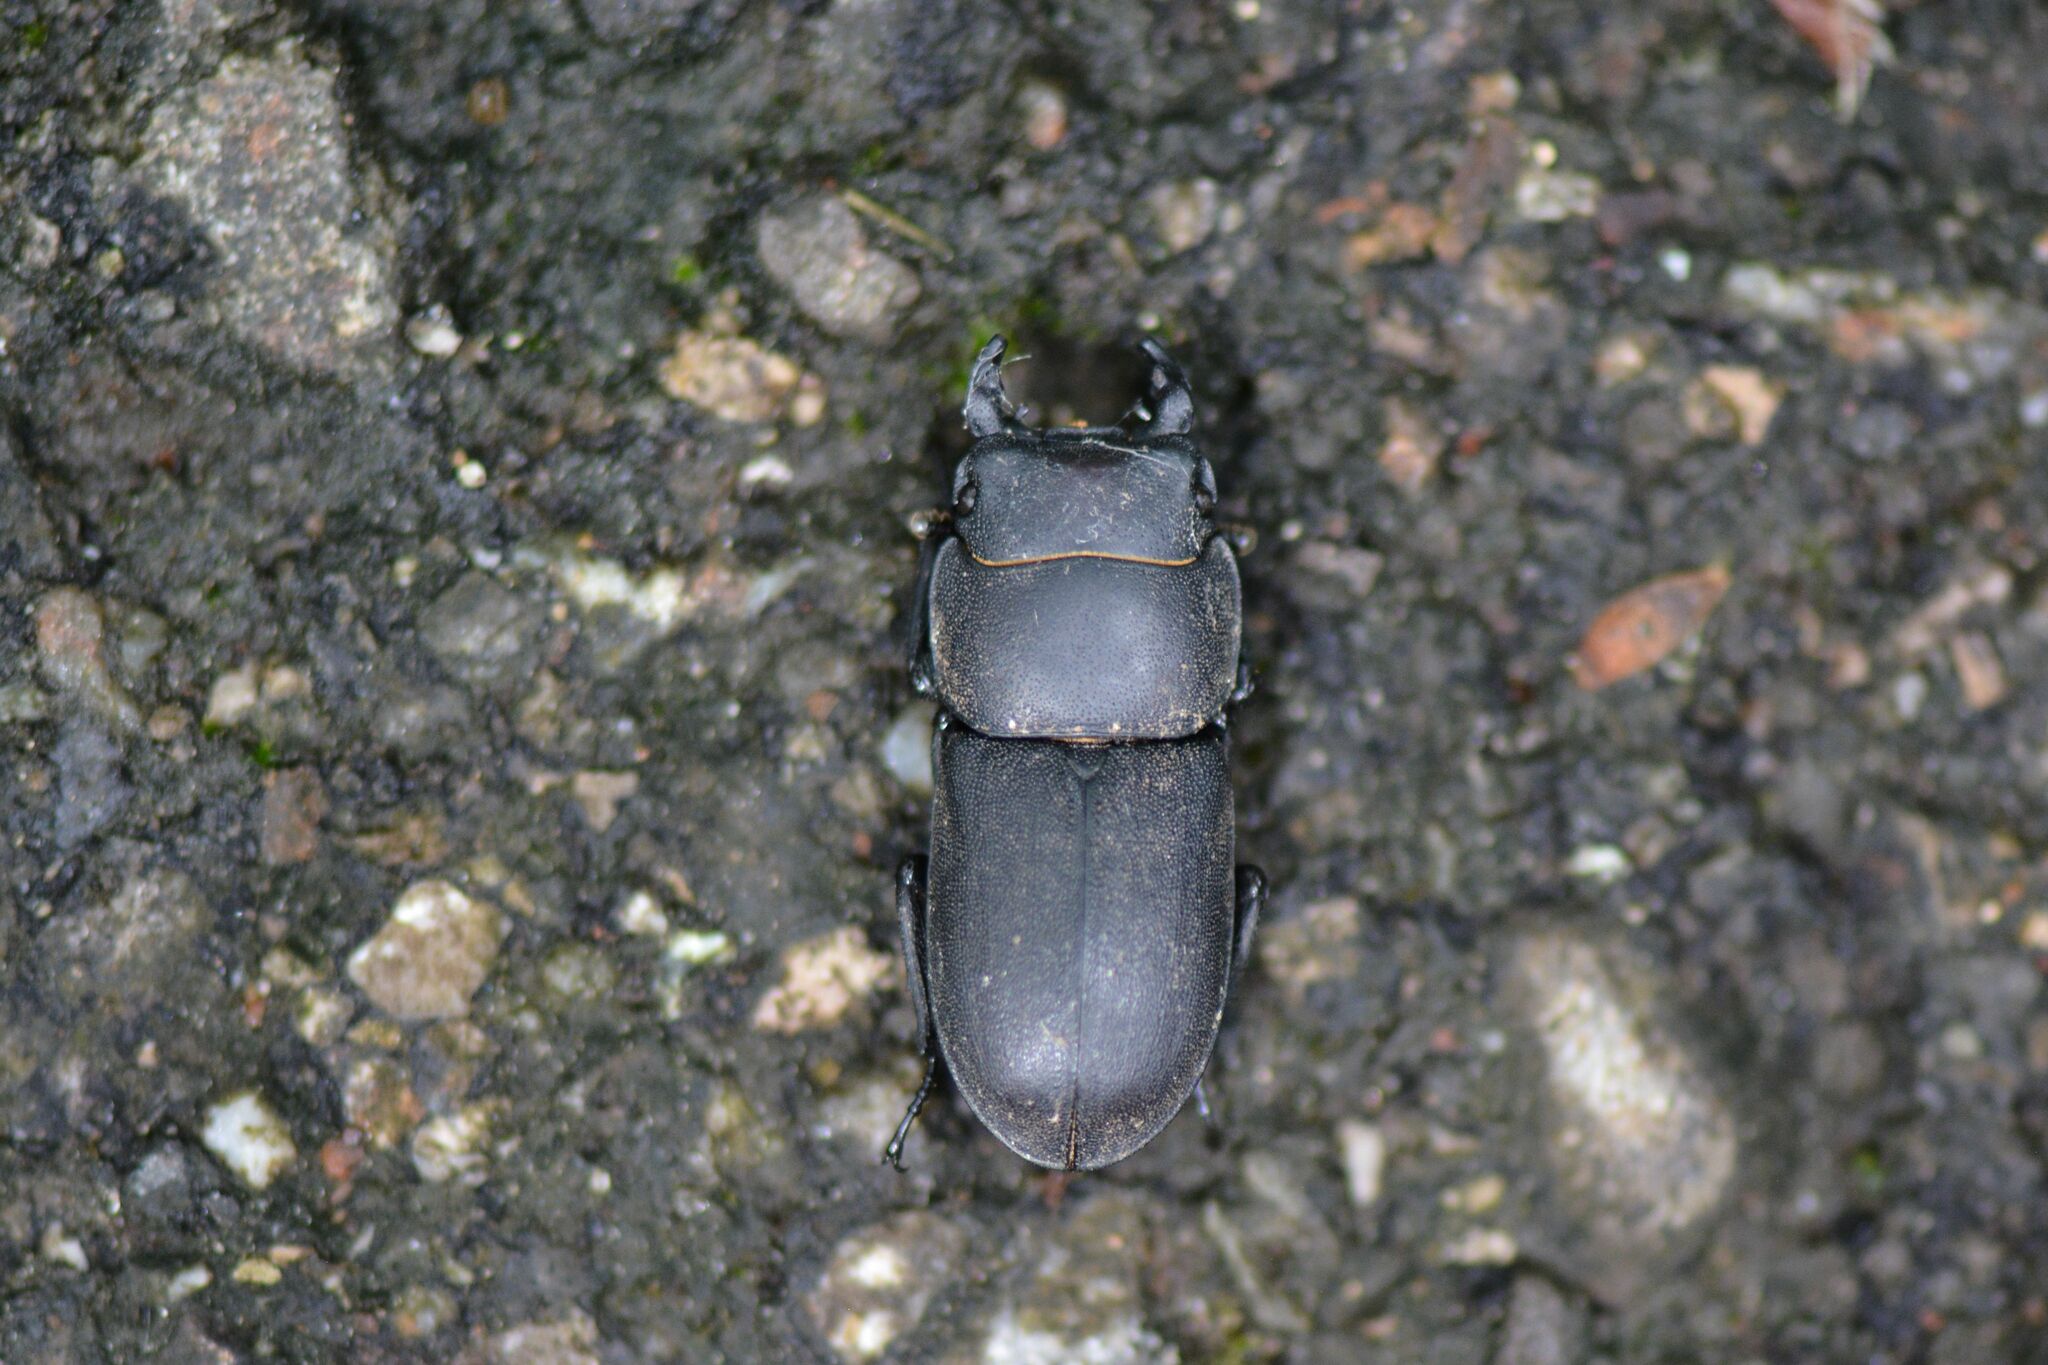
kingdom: Animalia
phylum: Arthropoda
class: Insecta
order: Coleoptera
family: Lucanidae
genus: Dorcus
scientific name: Dorcus parallelipipedus
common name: Lesser stag beetle
